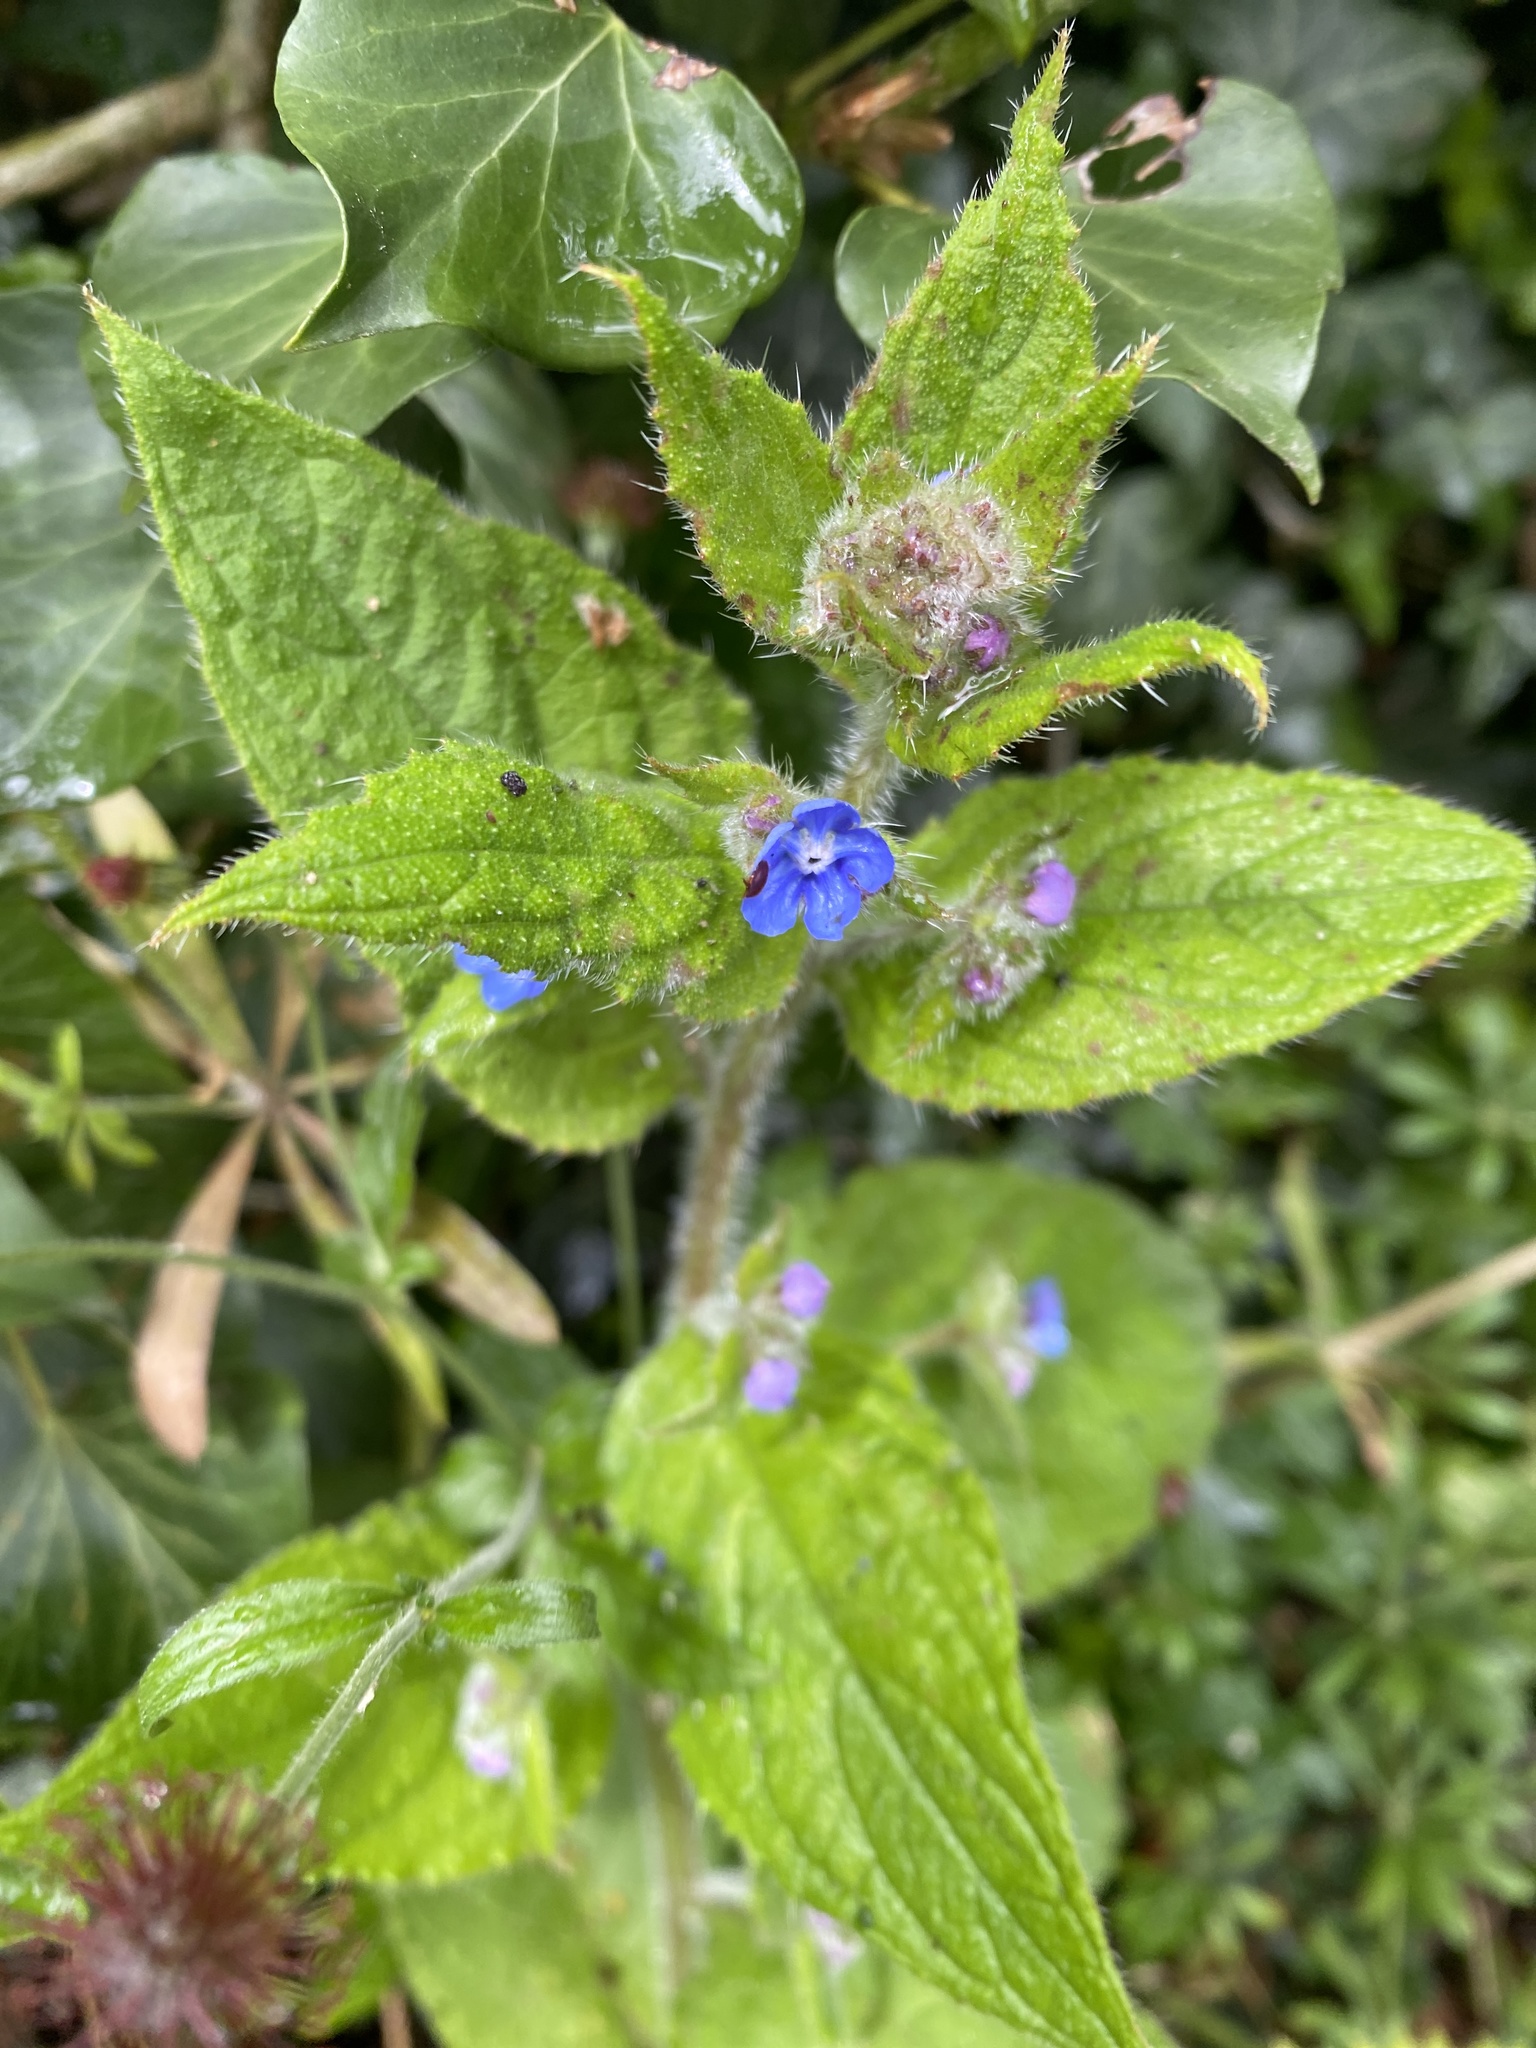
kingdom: Plantae
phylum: Tracheophyta
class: Magnoliopsida
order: Boraginales
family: Boraginaceae
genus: Pentaglottis
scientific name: Pentaglottis sempervirens
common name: Green alkanet
